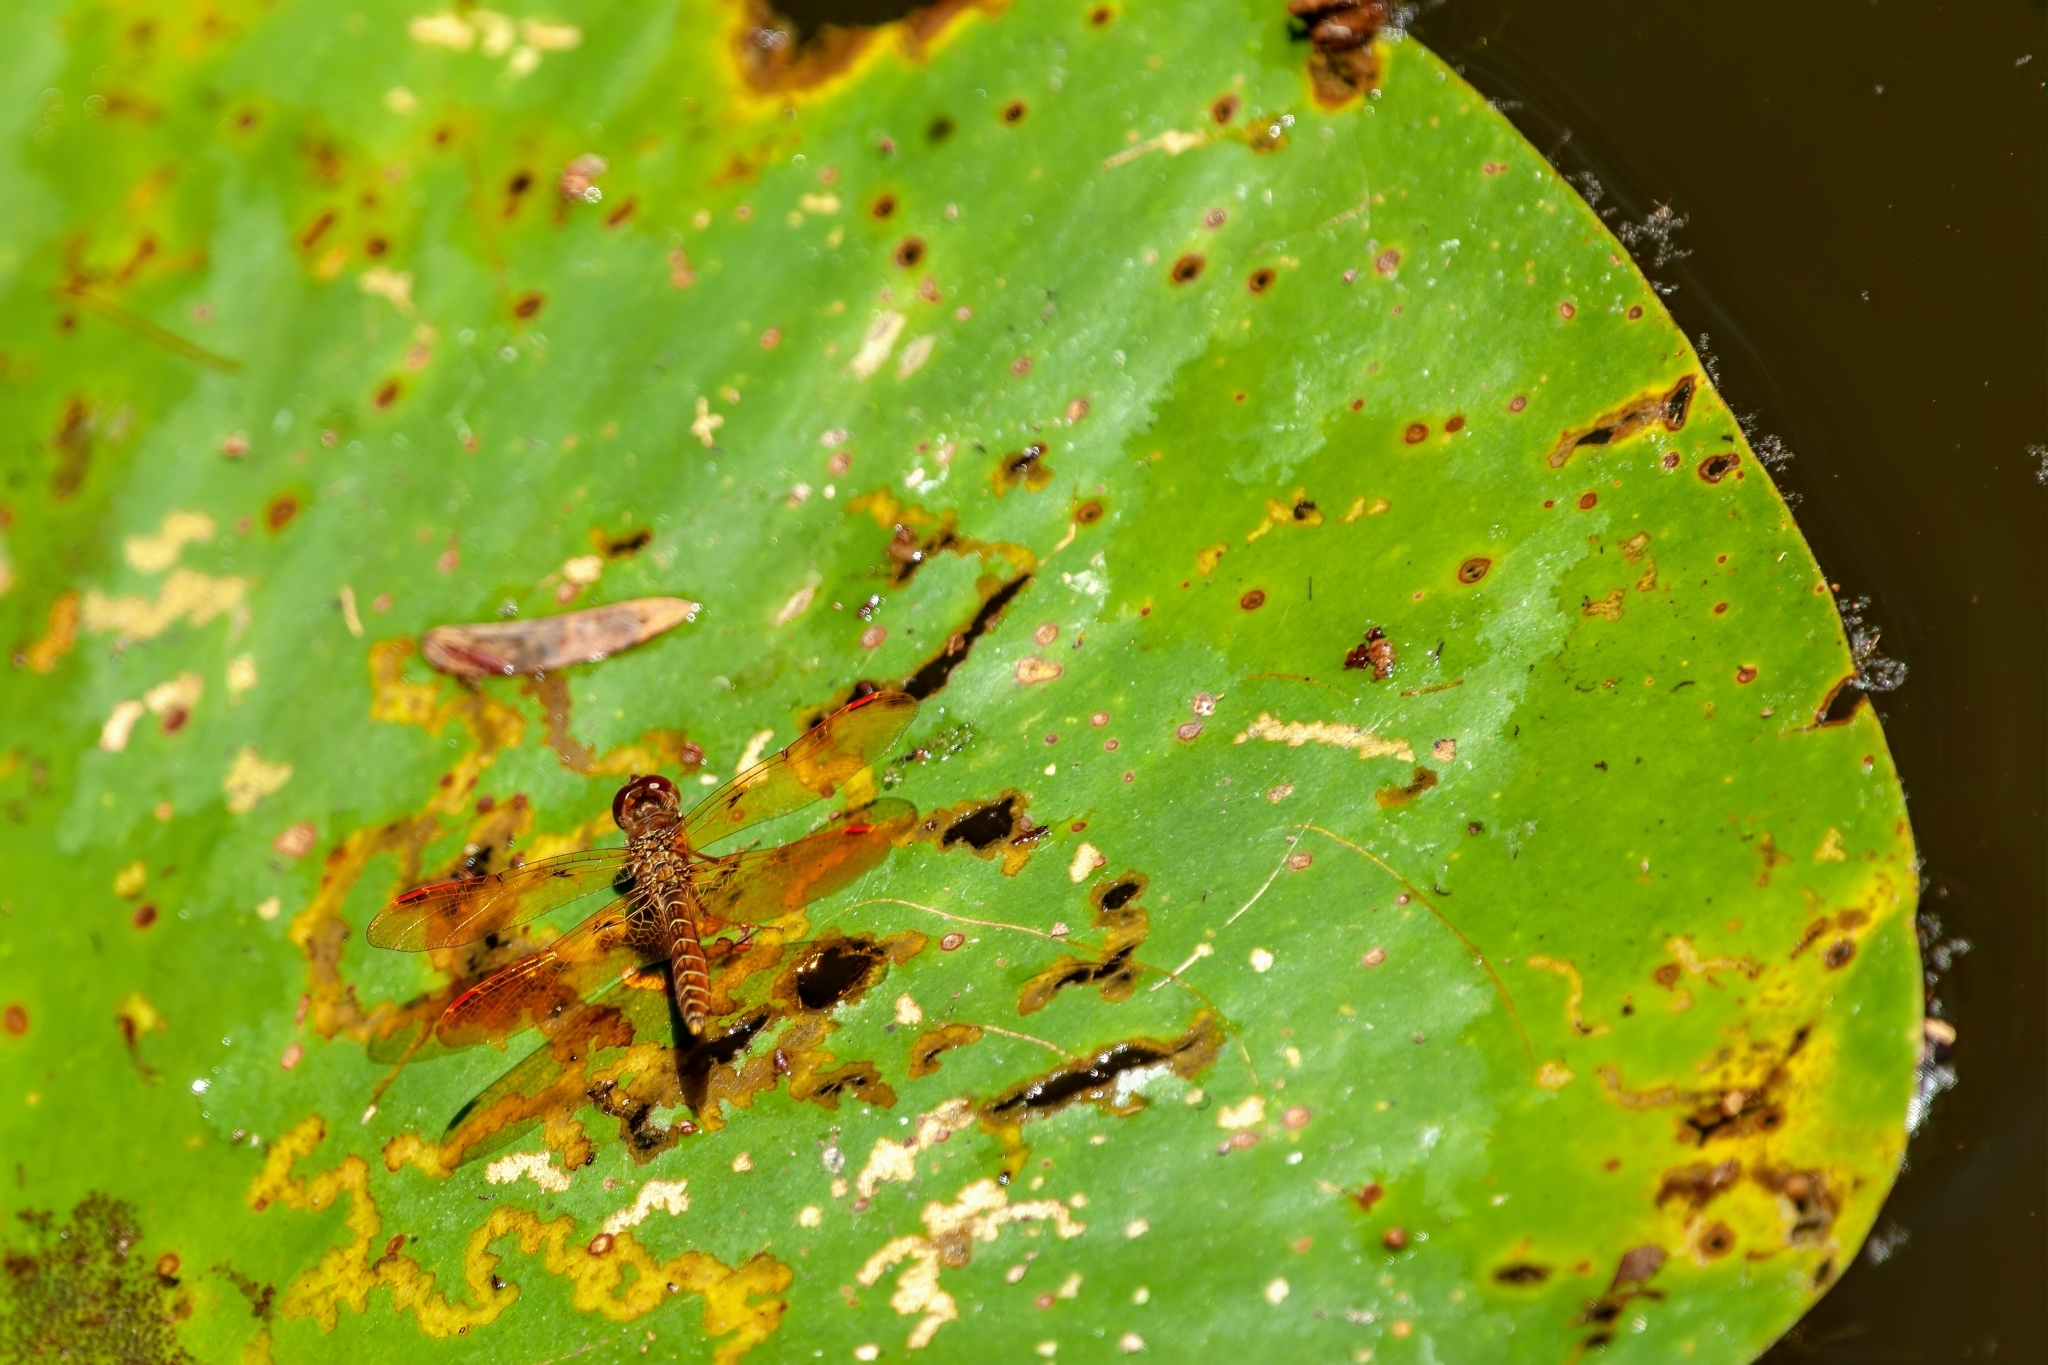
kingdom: Animalia
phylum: Arthropoda
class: Insecta
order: Odonata
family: Libellulidae
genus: Perithemis
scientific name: Perithemis tenera
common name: Eastern amberwing
